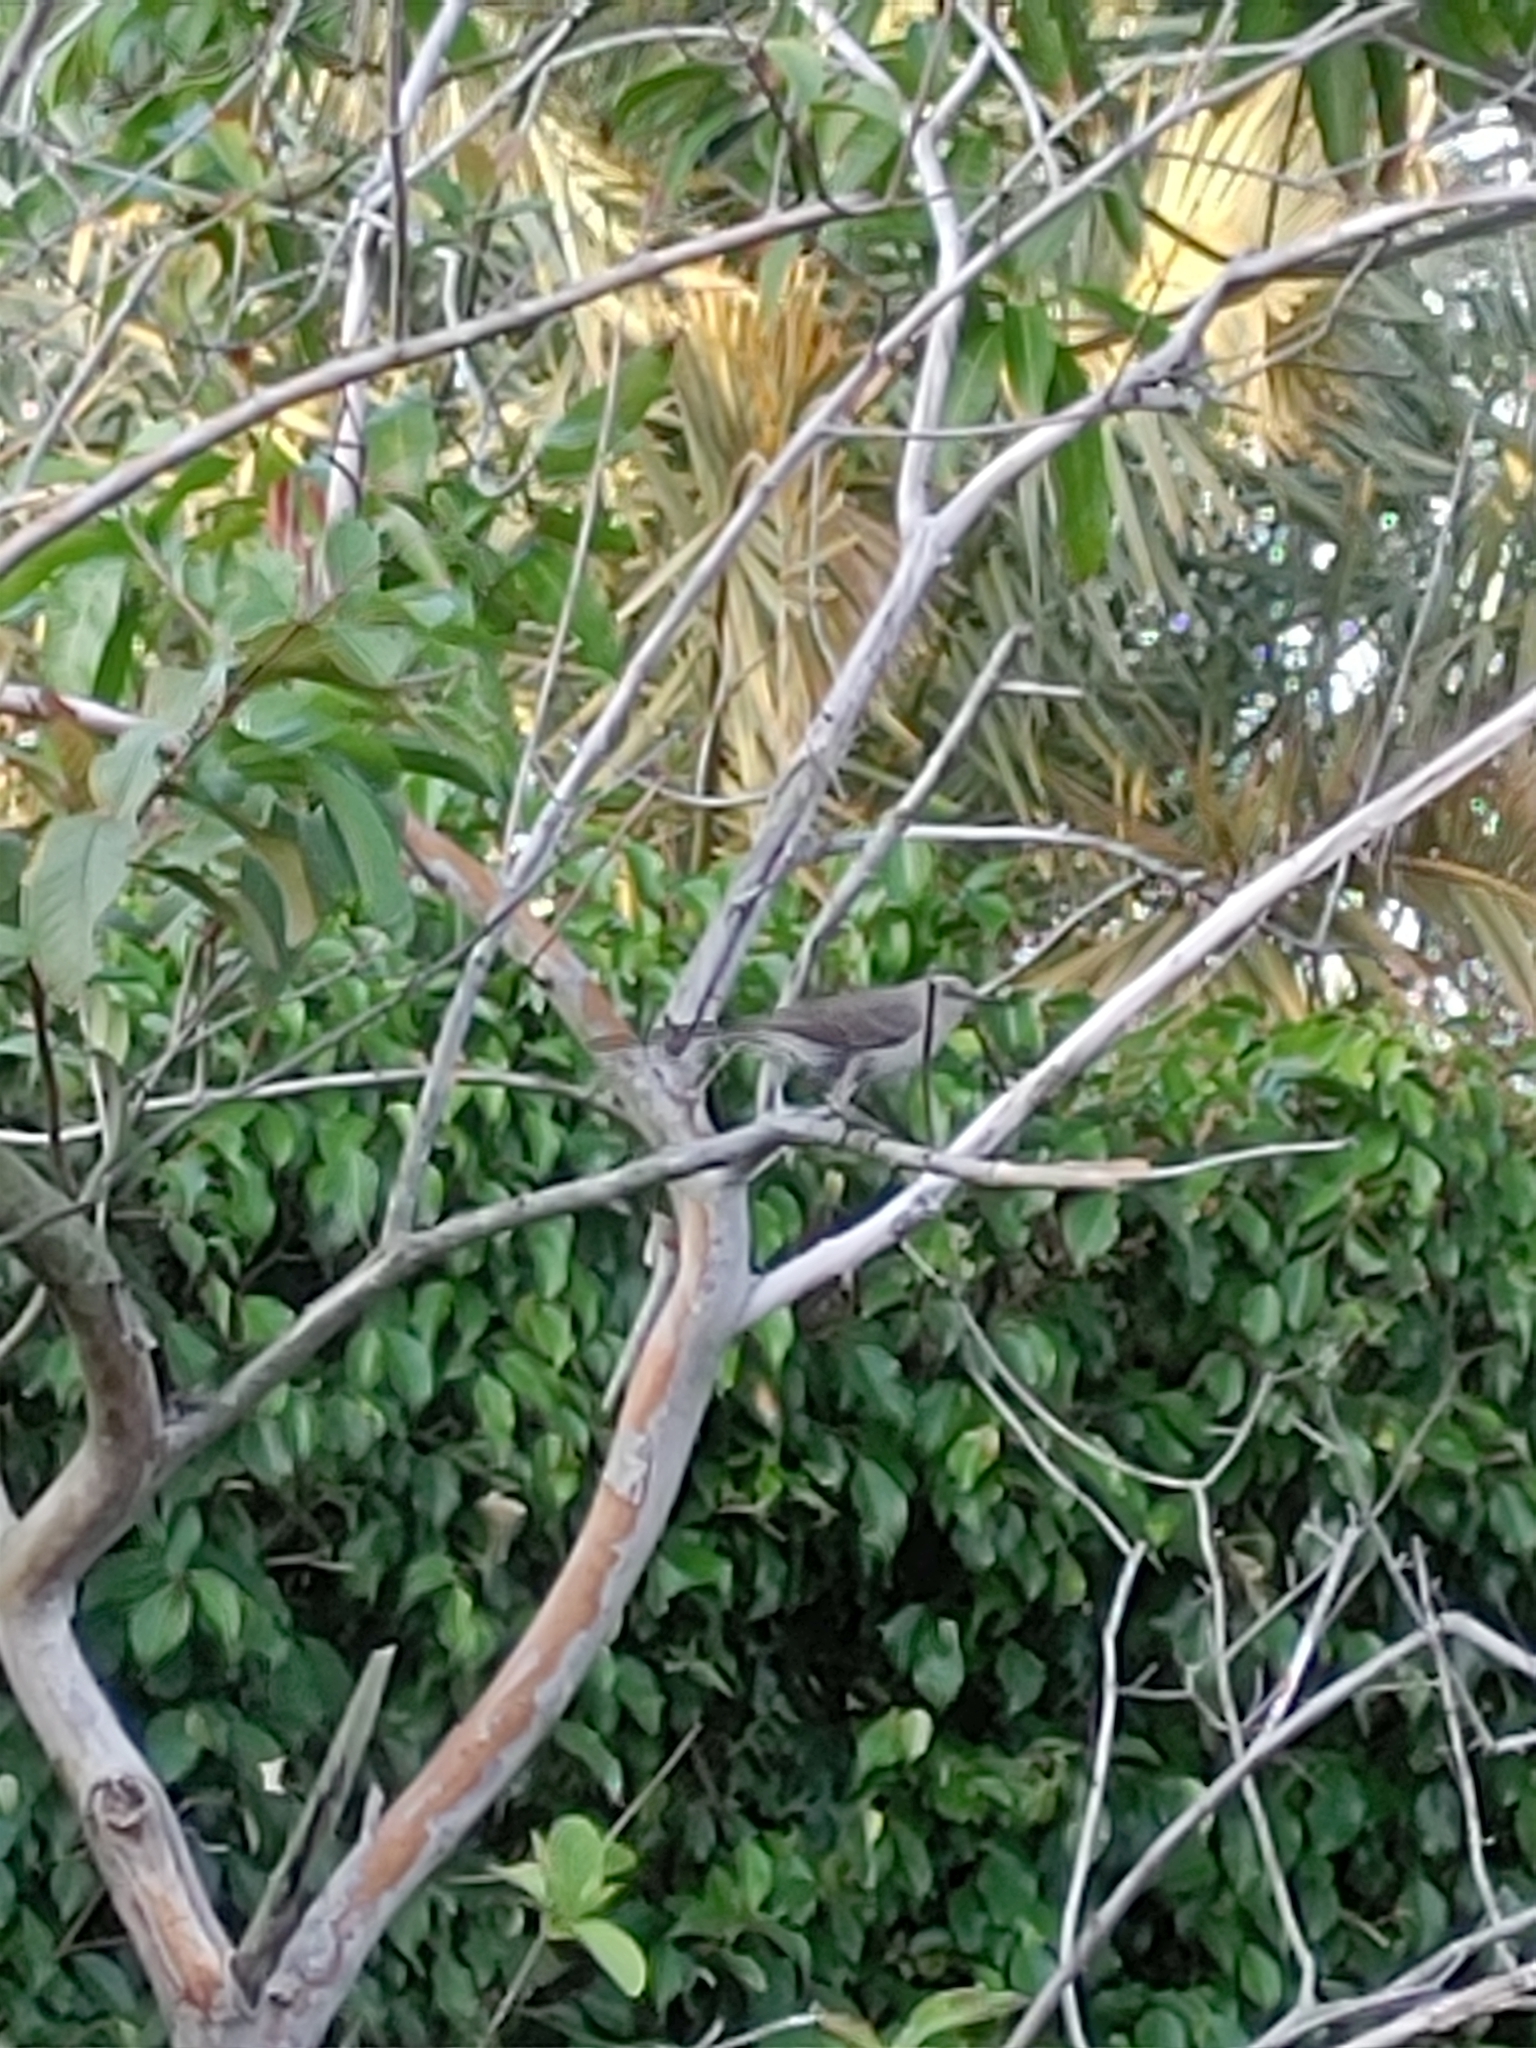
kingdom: Animalia
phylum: Chordata
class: Aves
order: Passeriformes
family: Mimidae
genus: Mimus
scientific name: Mimus polyglottos
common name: Northern mockingbird
